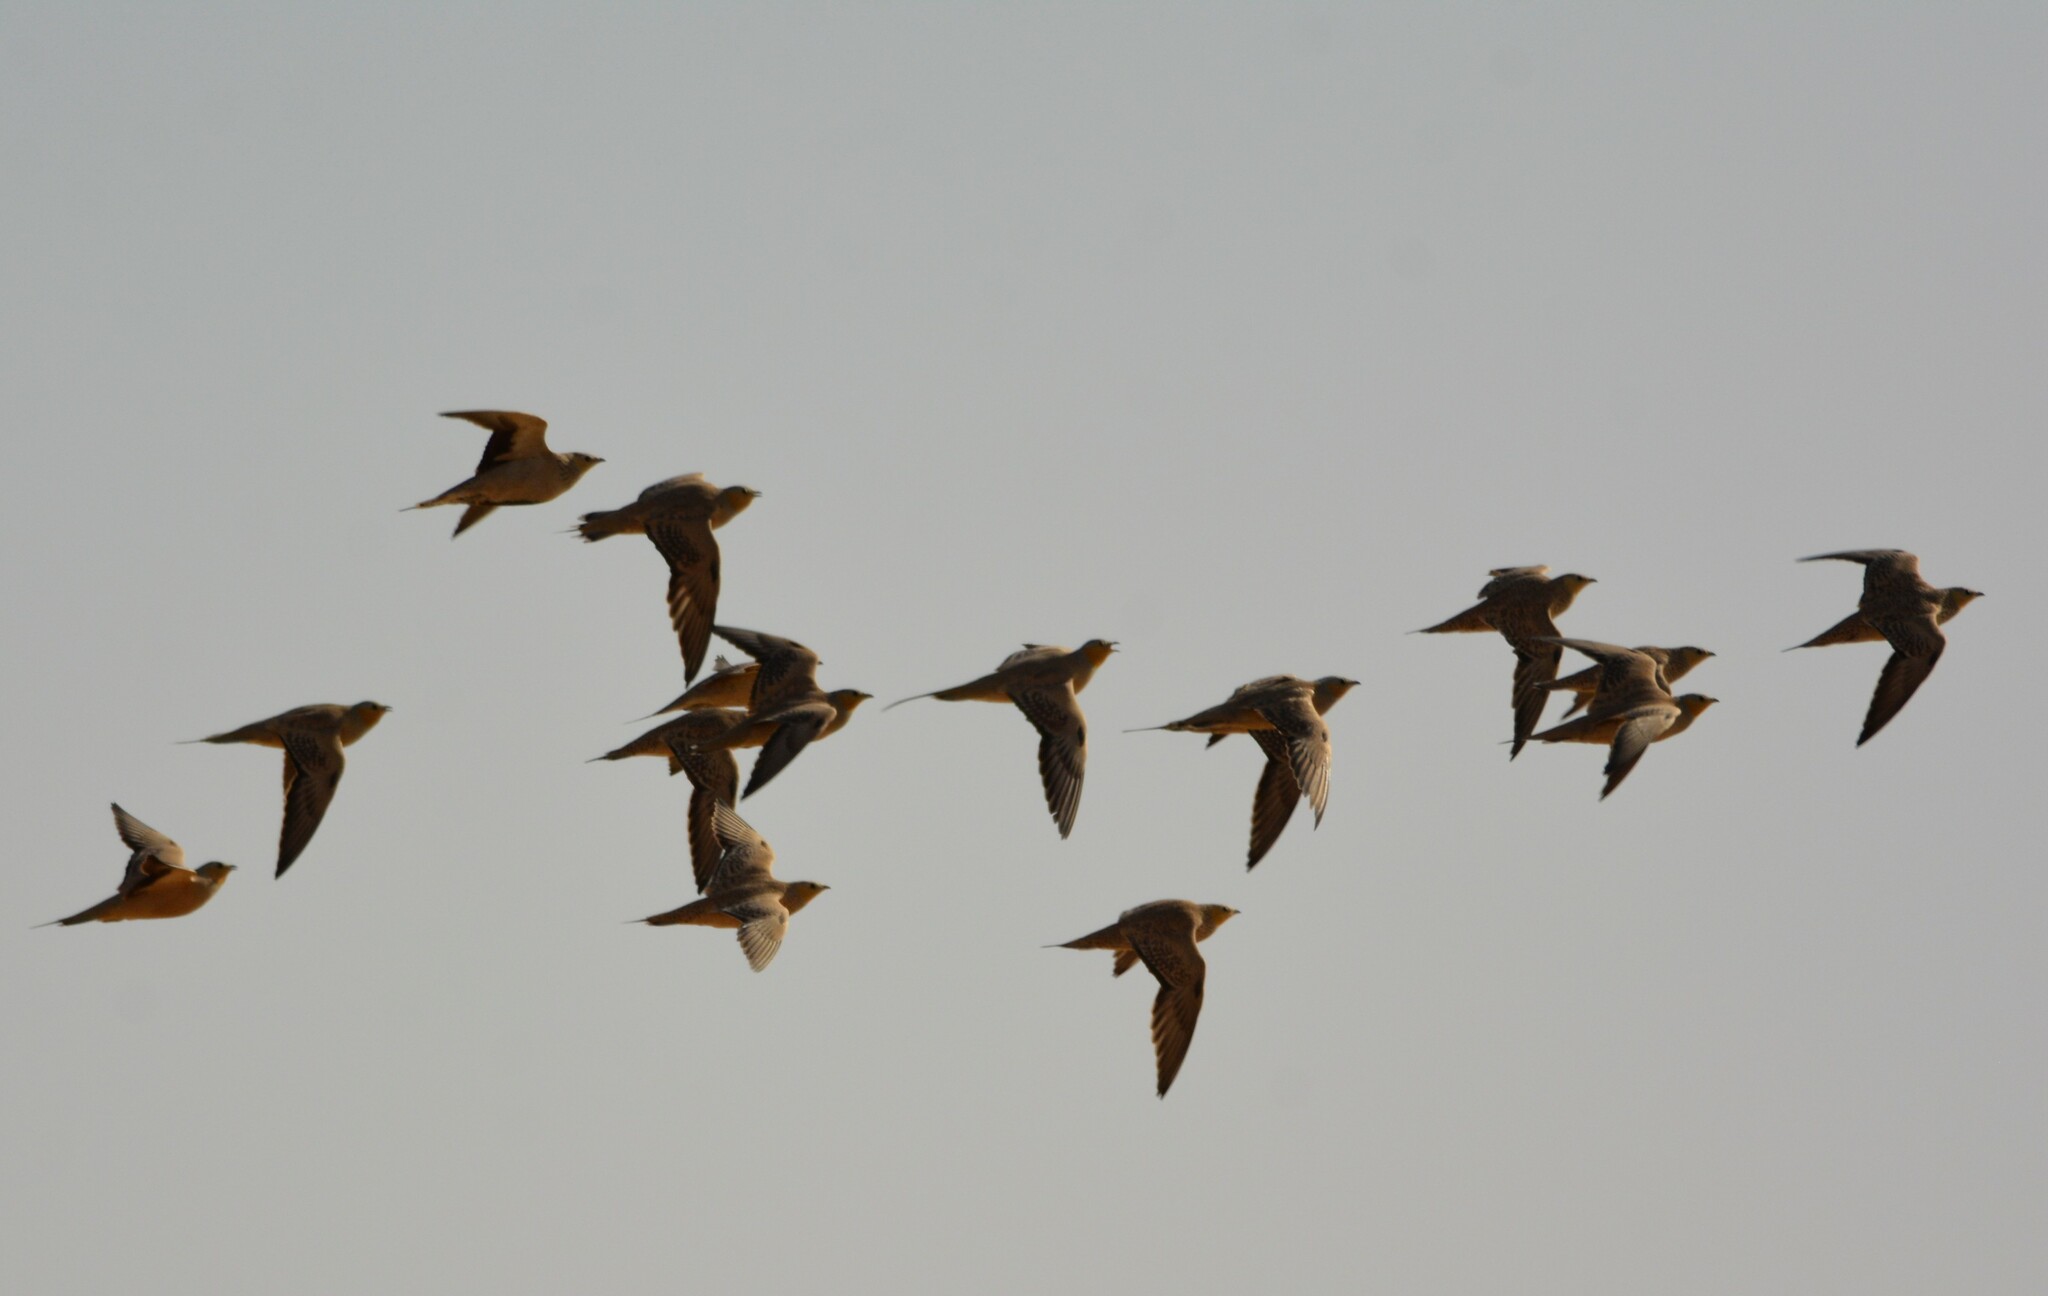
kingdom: Animalia
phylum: Chordata
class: Aves
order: Pteroclidiformes
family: Pteroclididae
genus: Pterocles
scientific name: Pterocles senegallus
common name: Spotted sandgrouse
